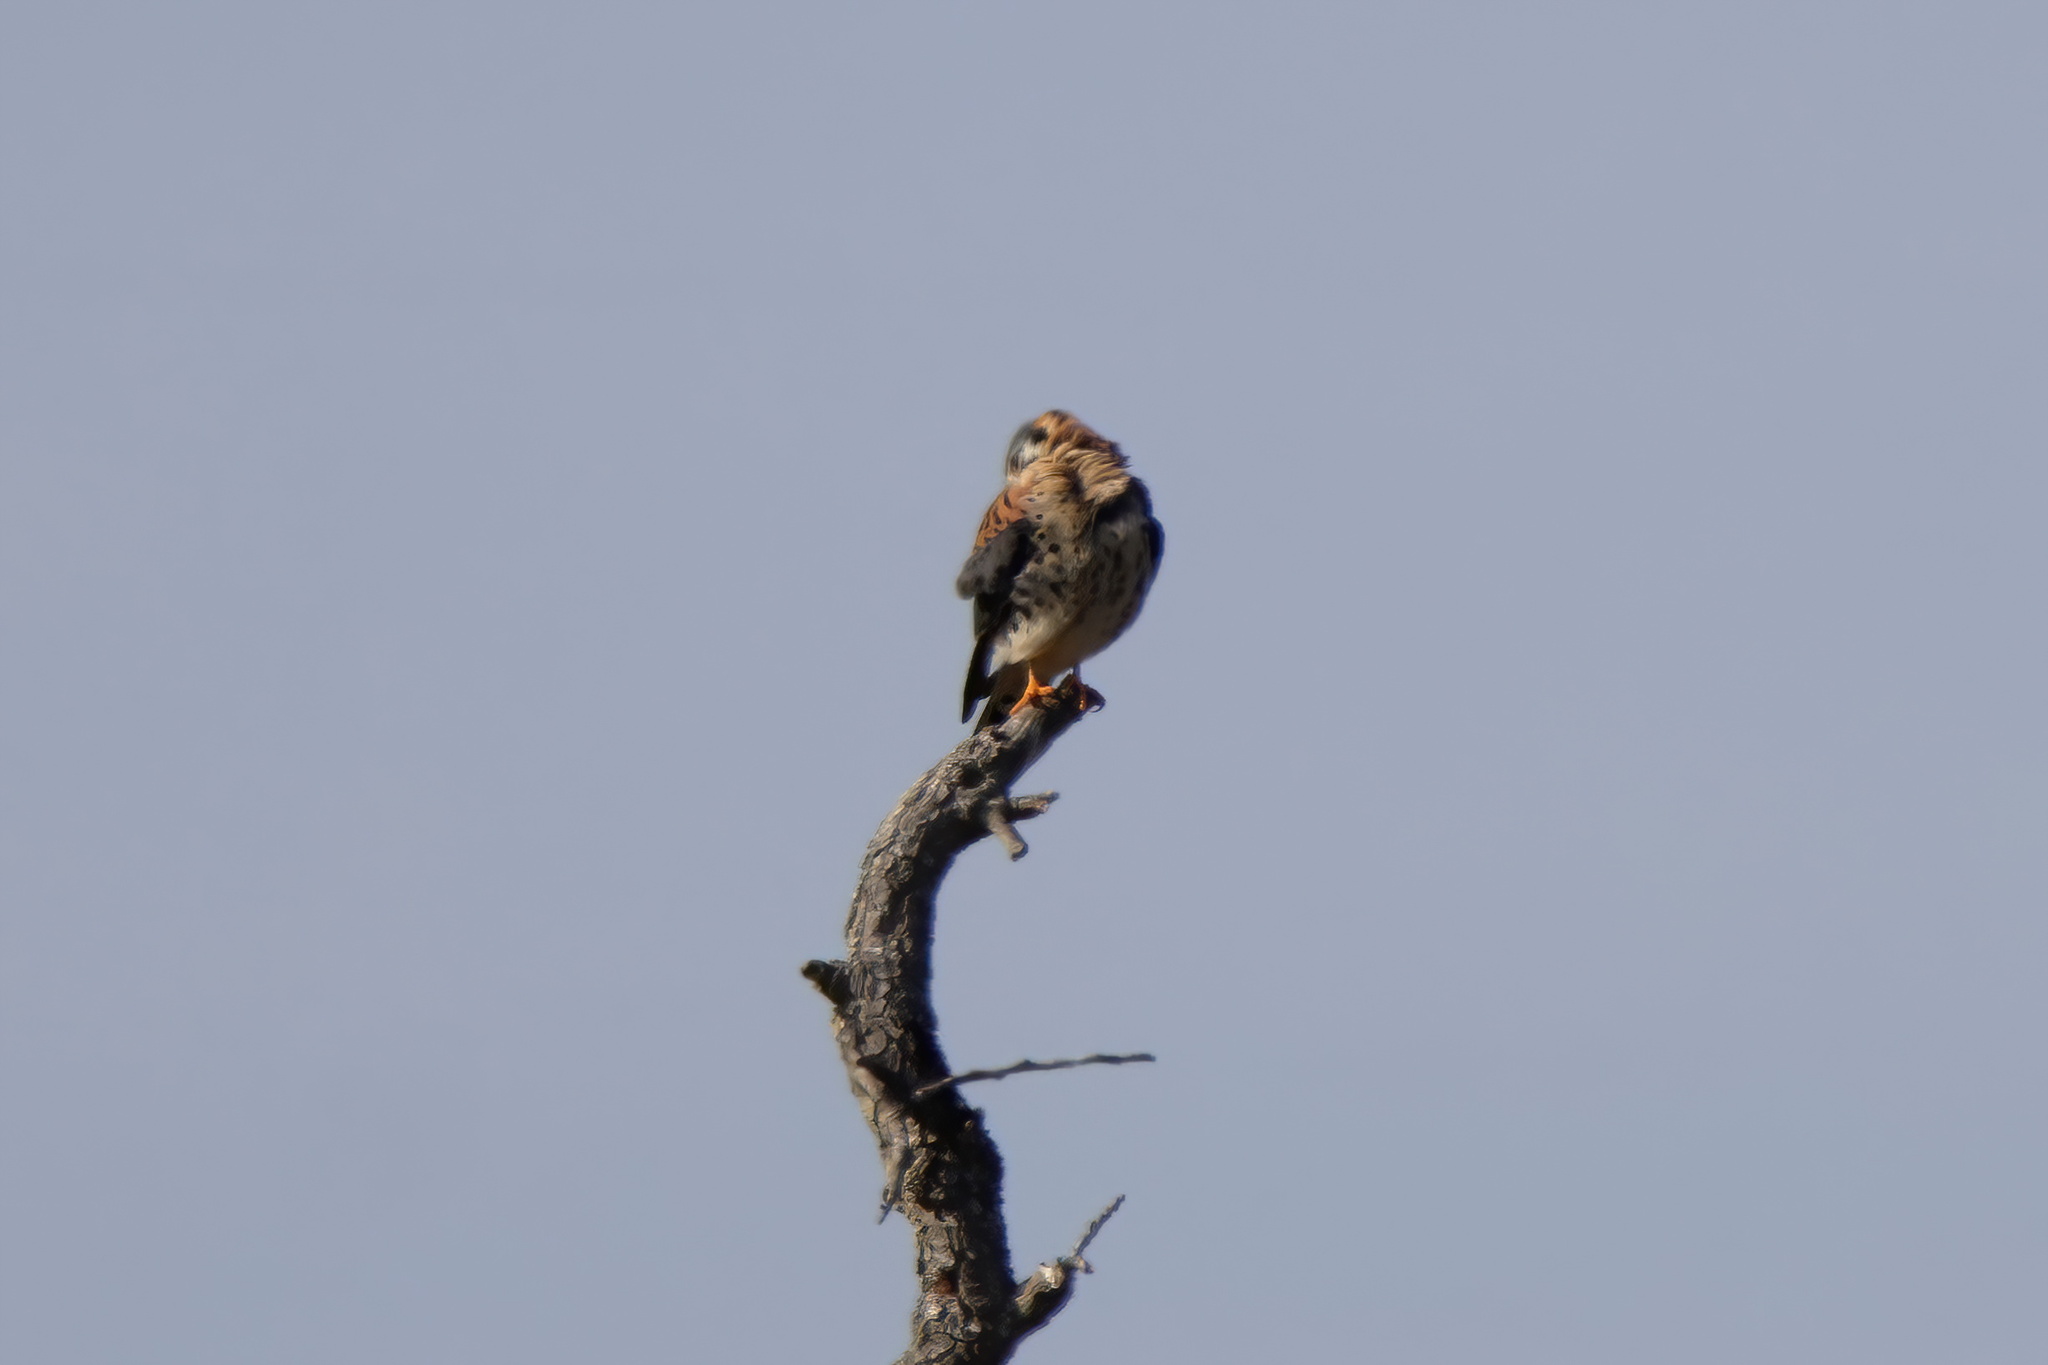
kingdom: Animalia
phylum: Chordata
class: Aves
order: Falconiformes
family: Falconidae
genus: Falco
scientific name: Falco sparverius
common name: American kestrel
